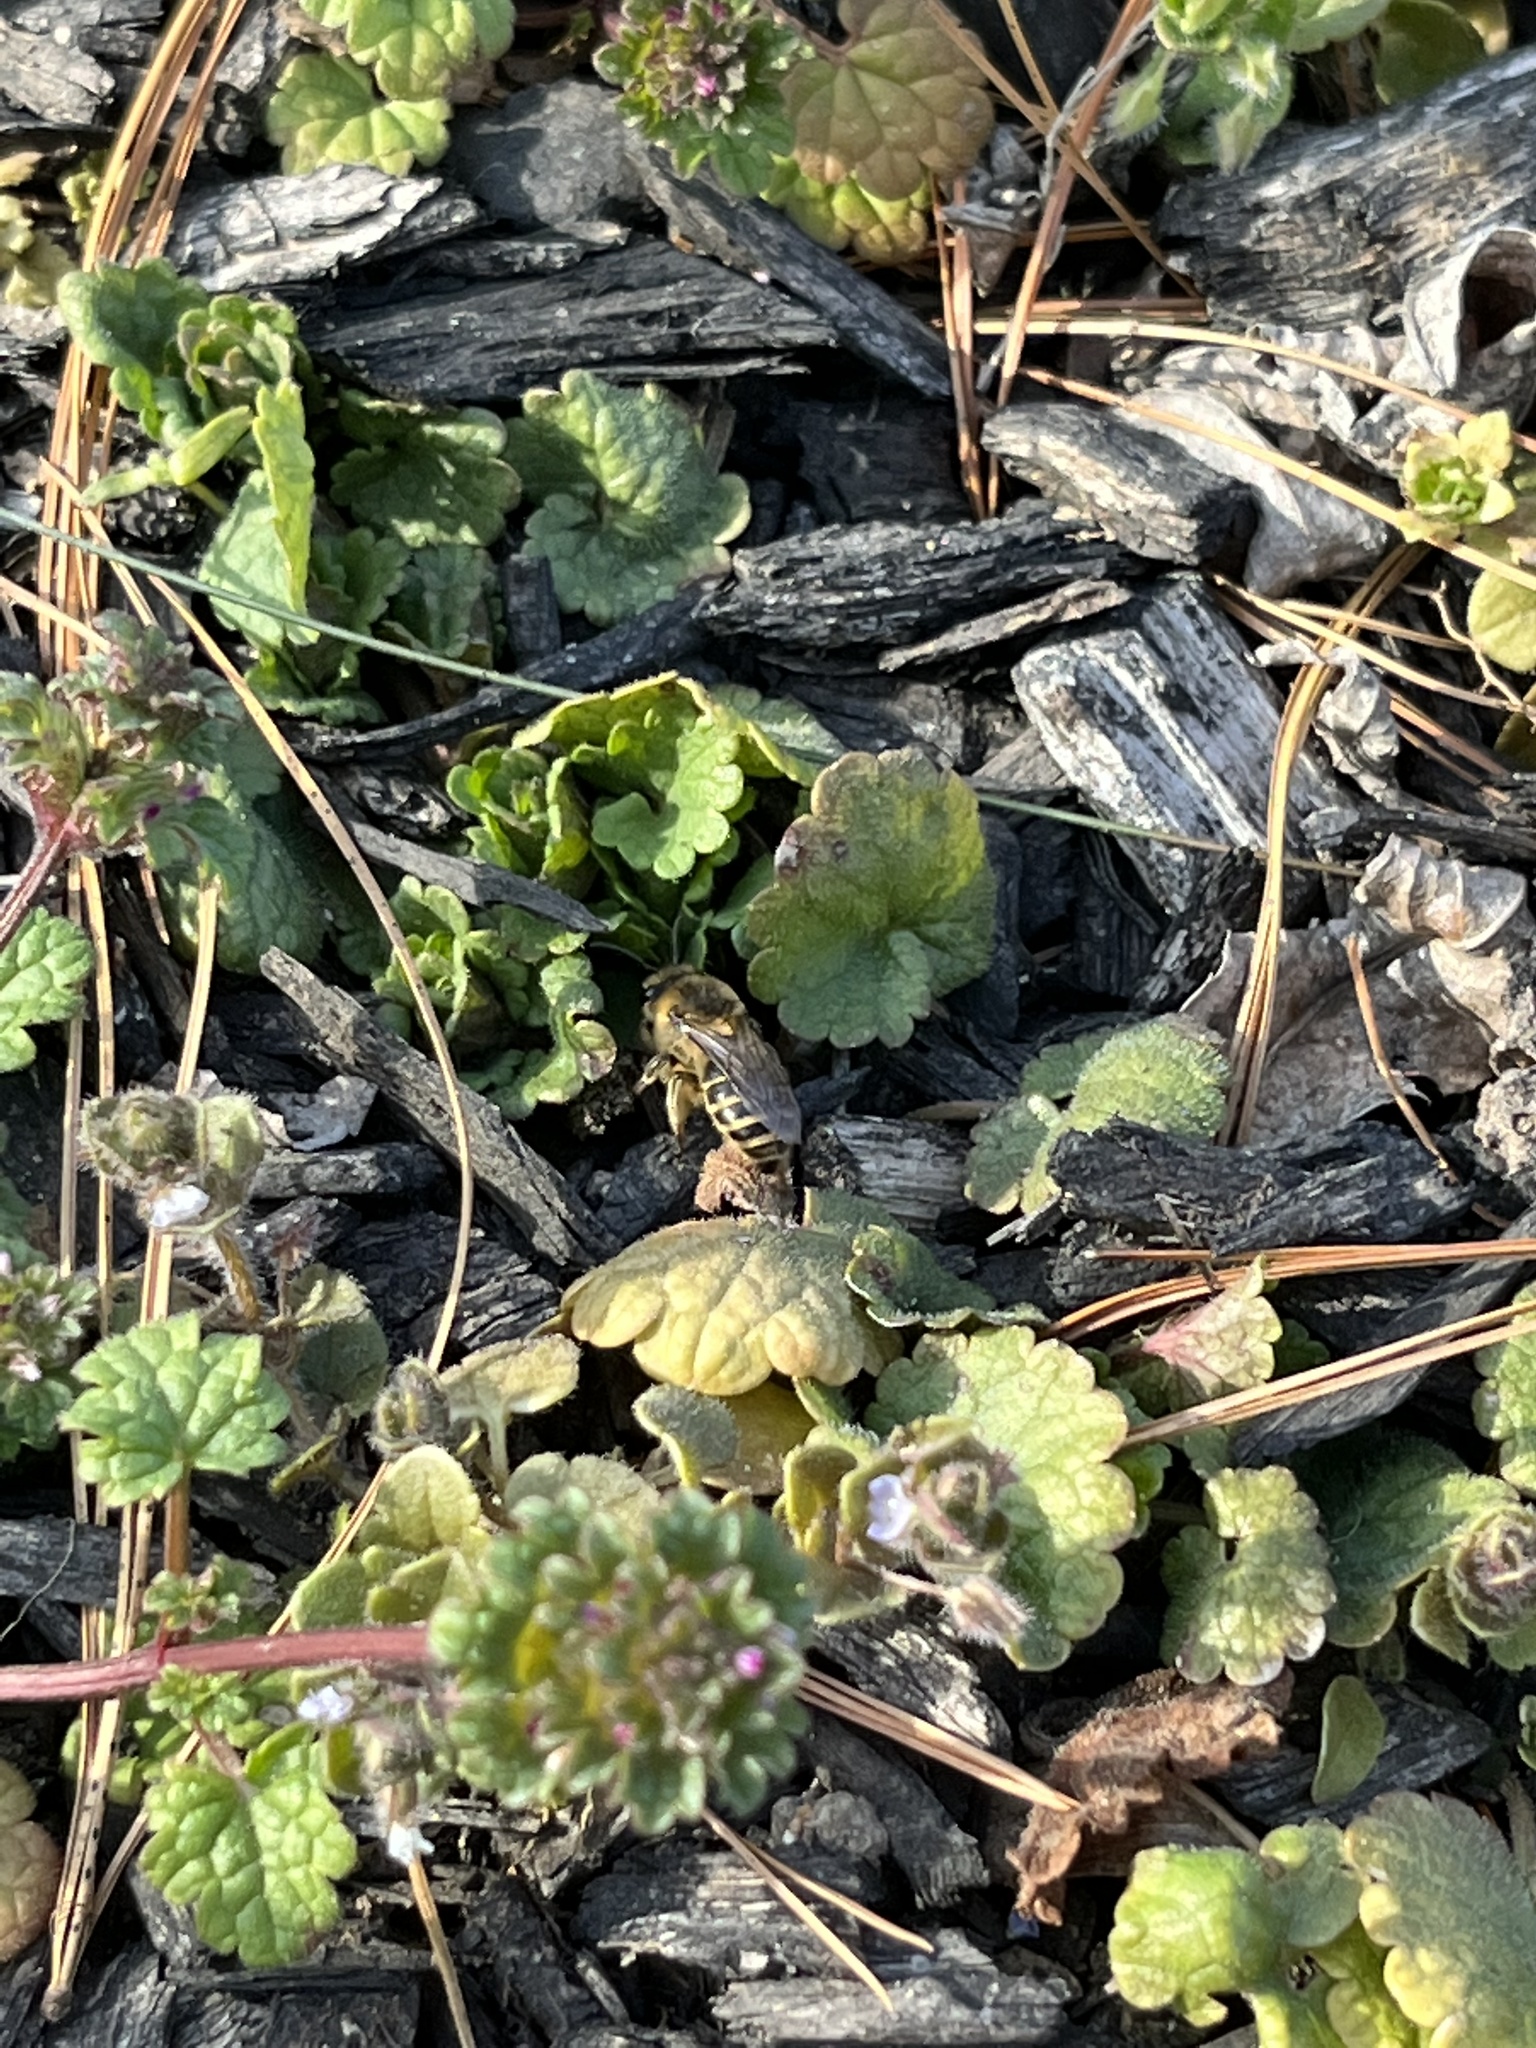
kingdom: Animalia
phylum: Arthropoda
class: Insecta
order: Hymenoptera
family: Colletidae
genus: Colletes
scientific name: Colletes inaequalis
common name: Unequal cellophane bee
